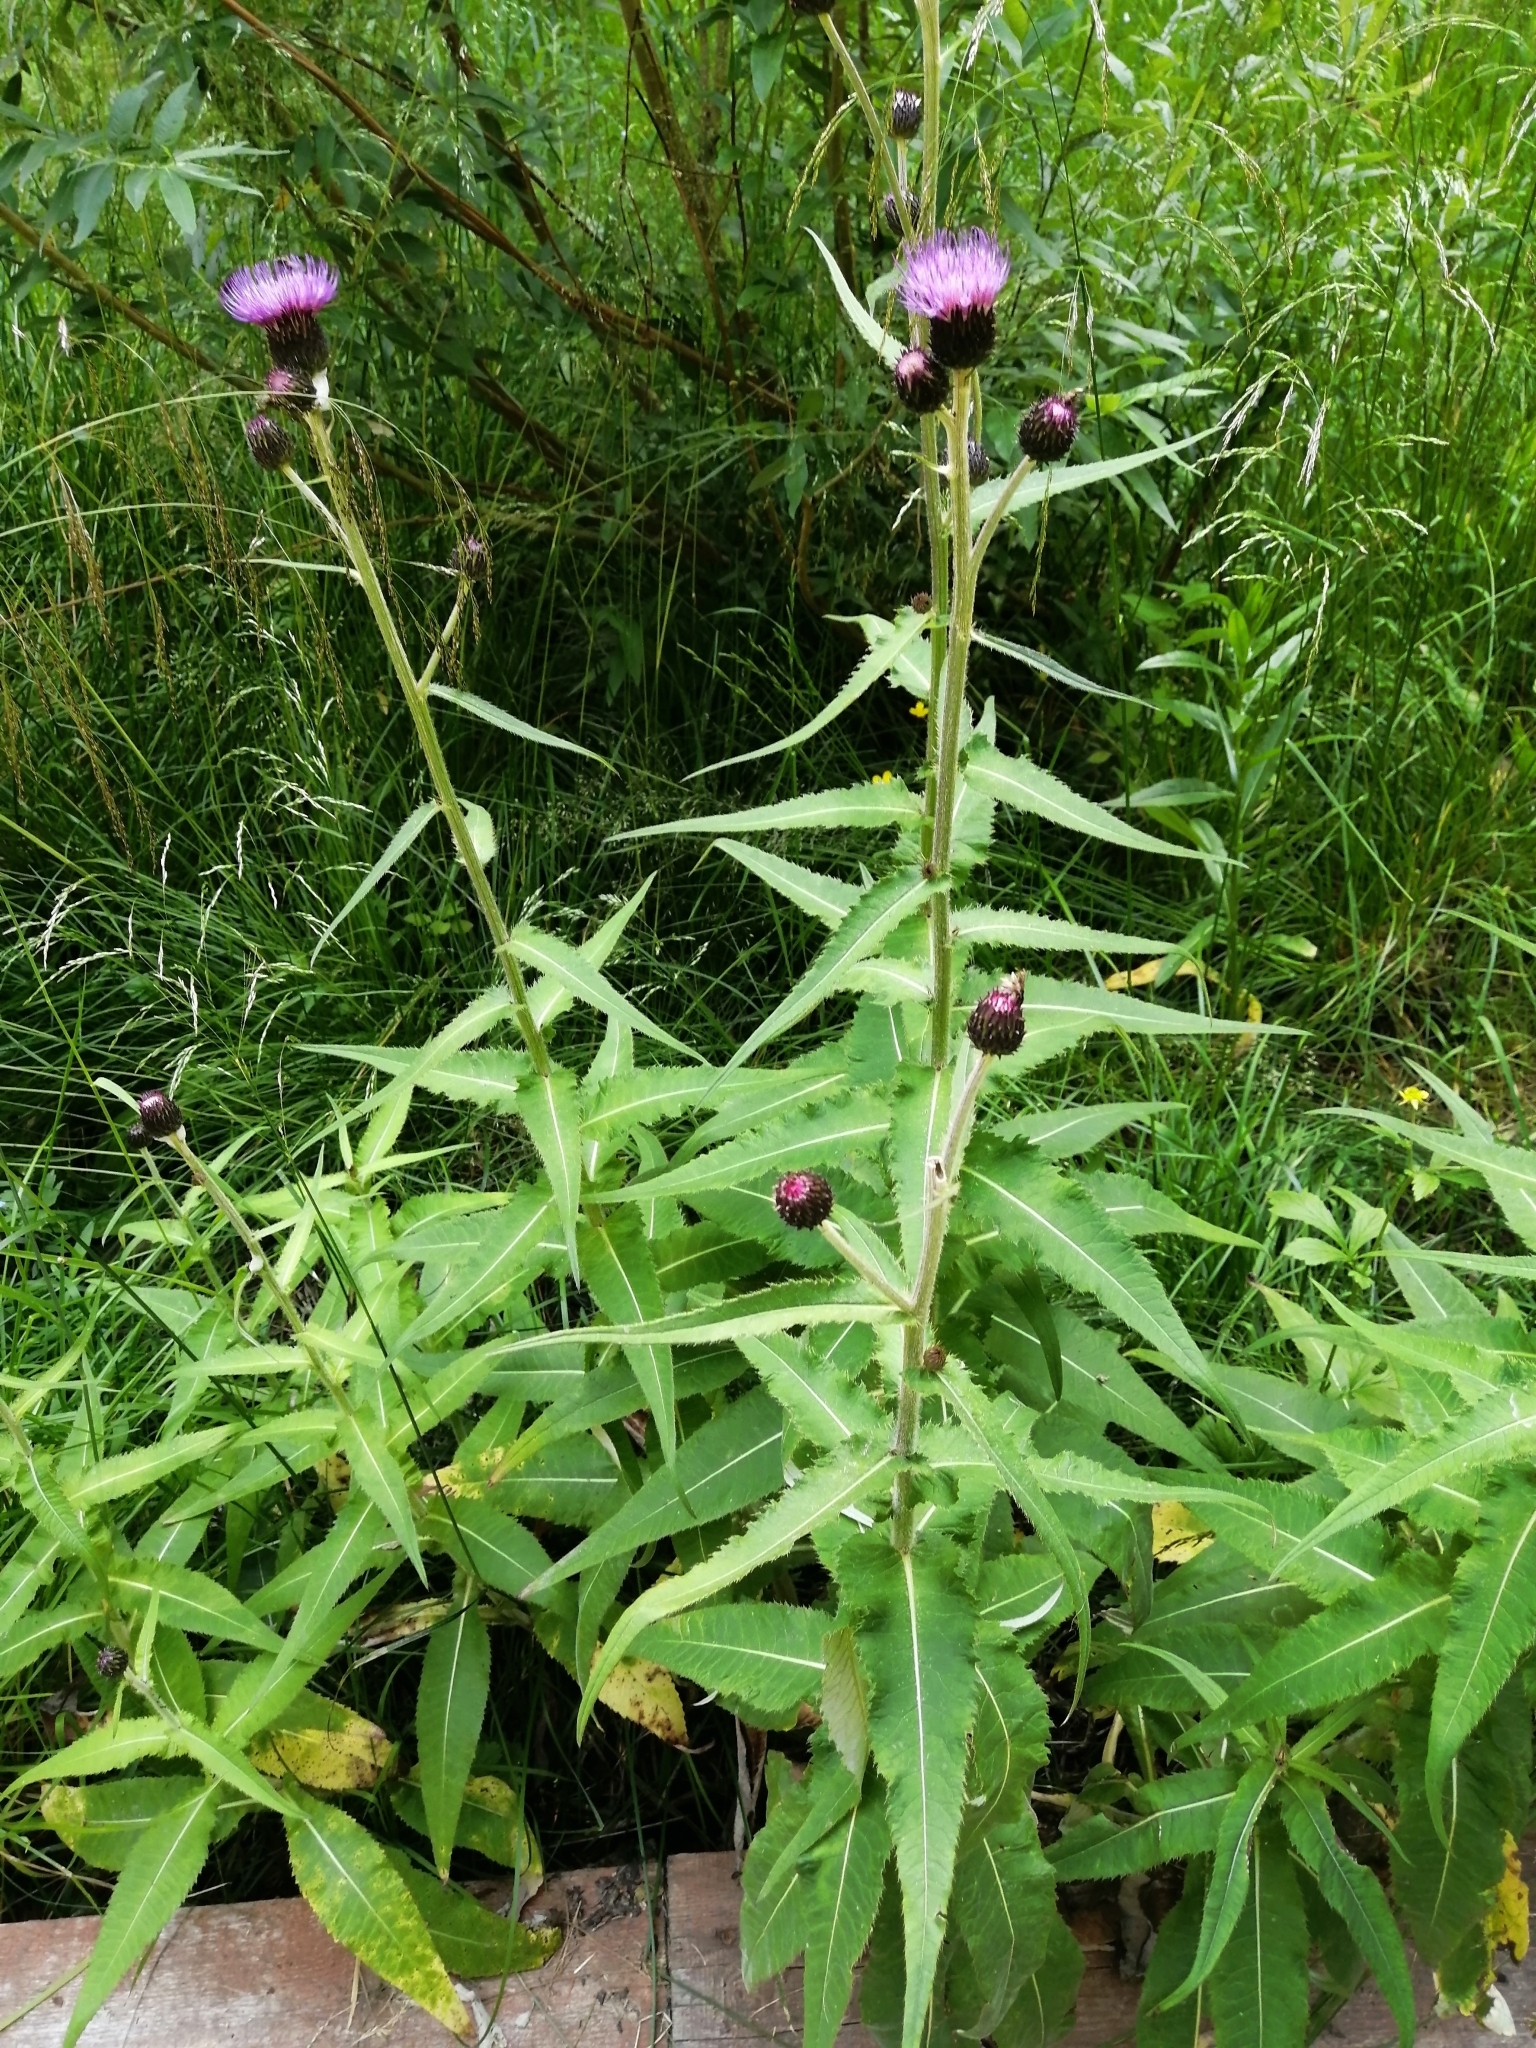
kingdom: Plantae
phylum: Tracheophyta
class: Magnoliopsida
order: Asterales
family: Asteraceae
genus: Cirsium
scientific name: Cirsium heterophyllum
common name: Melancholy thistle
